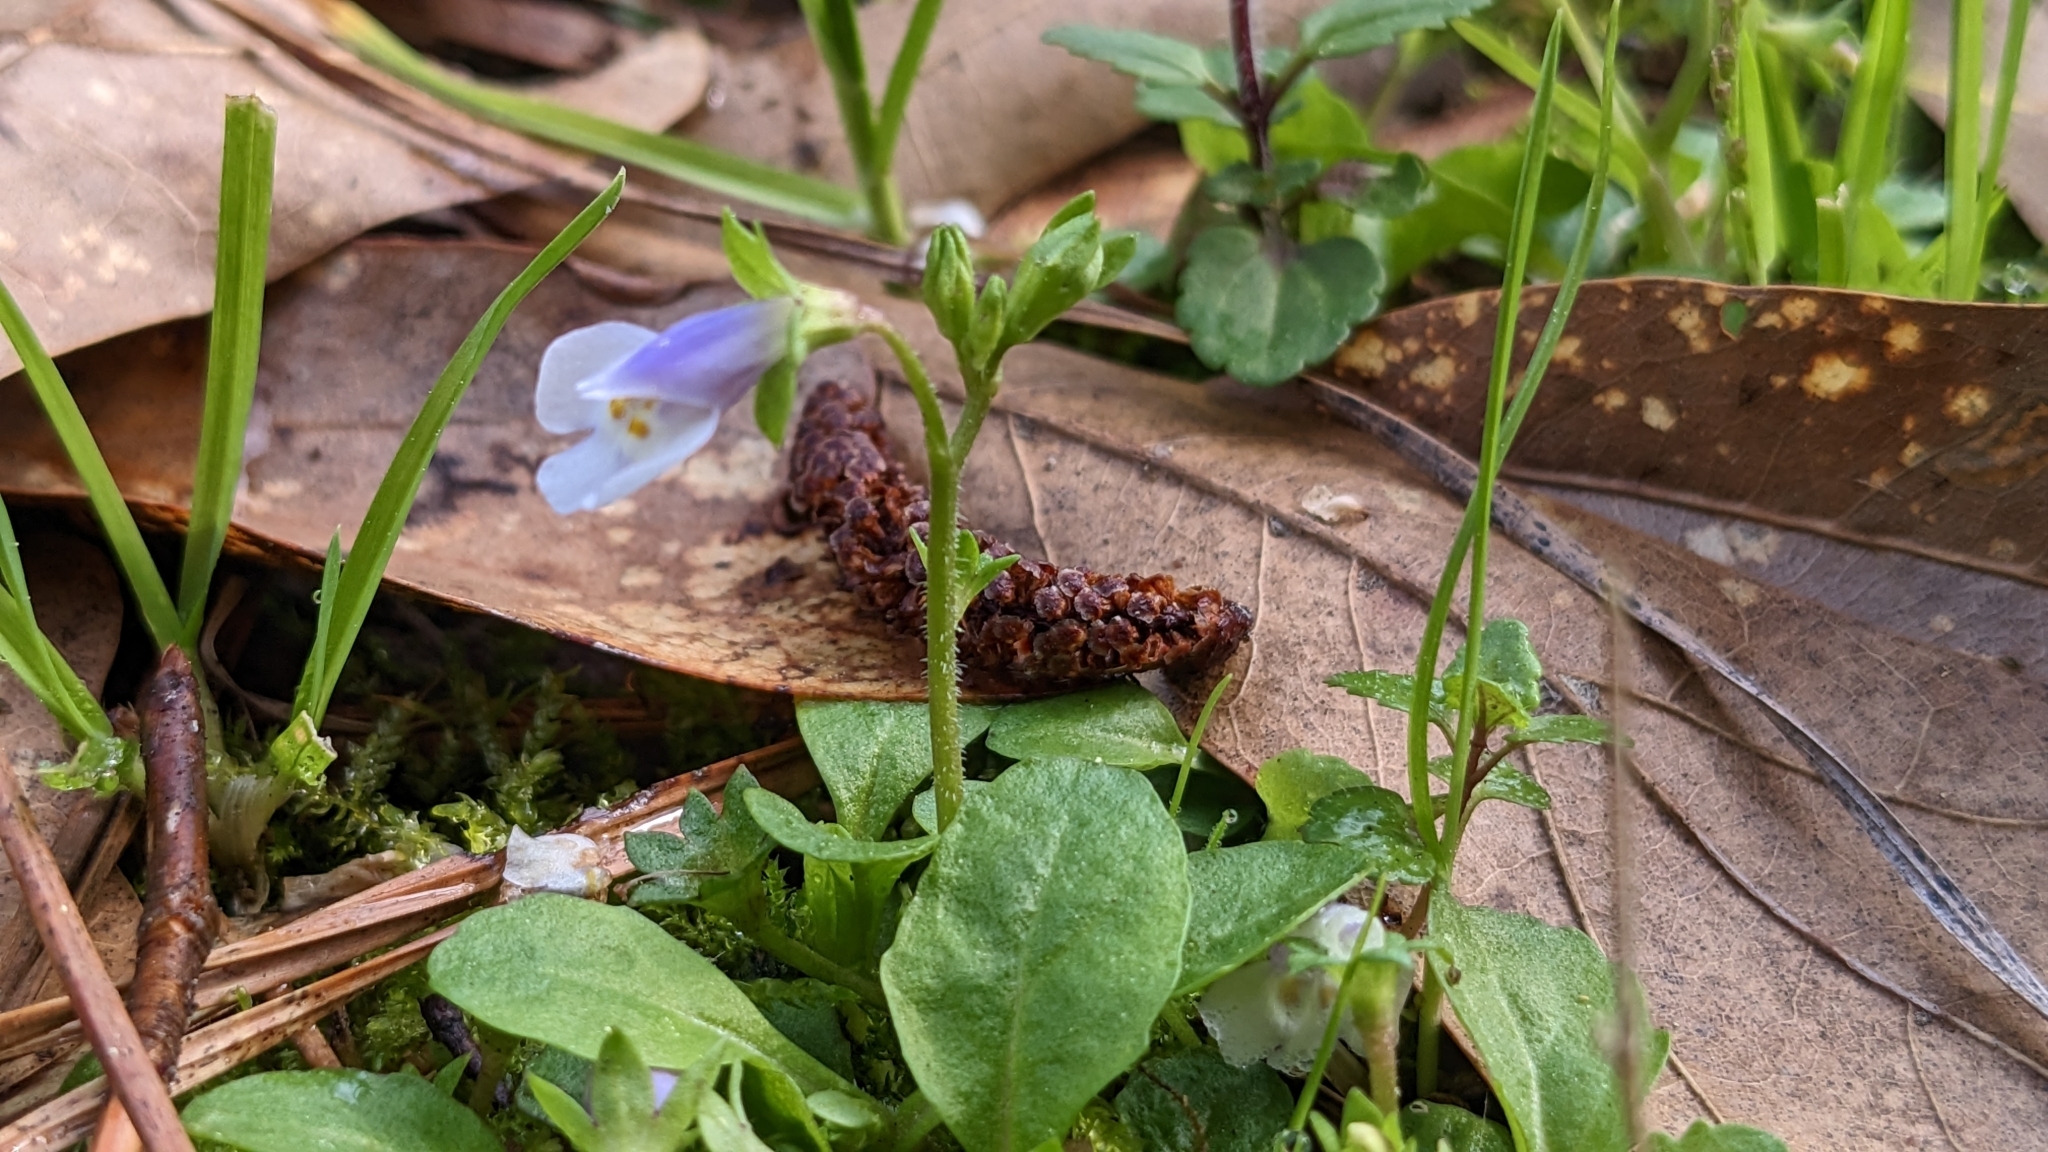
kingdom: Plantae
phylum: Tracheophyta
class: Magnoliopsida
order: Lamiales
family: Mazaceae
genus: Mazus
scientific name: Mazus pumilus
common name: Japanese mazus
